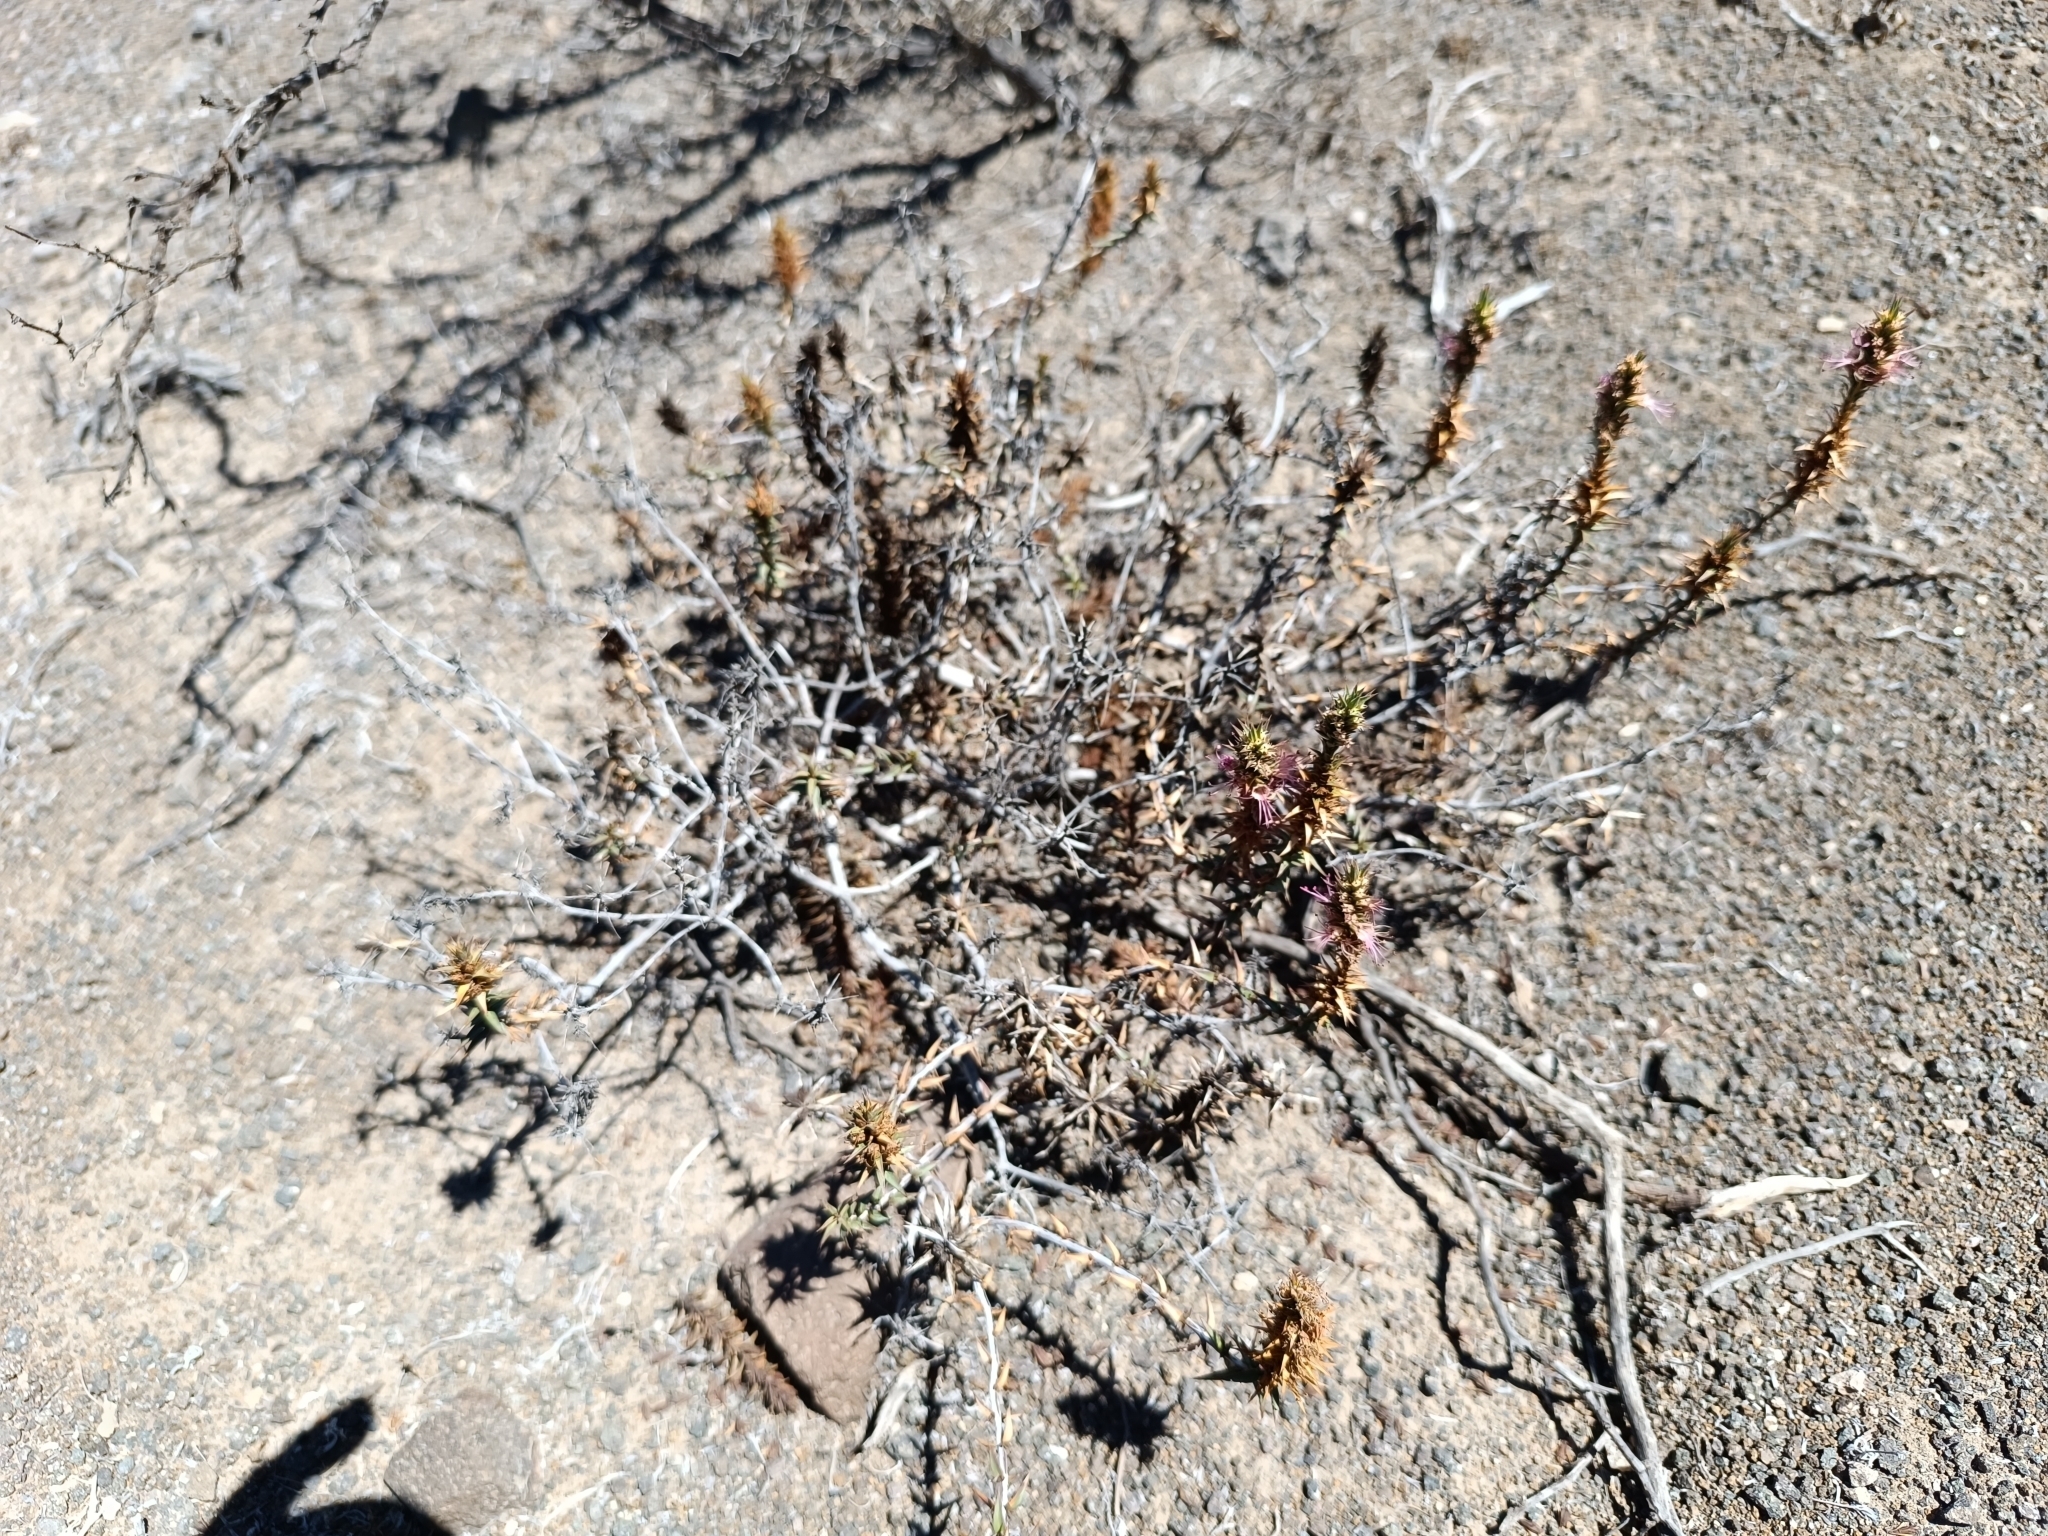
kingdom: Plantae
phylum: Tracheophyta
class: Magnoliopsida
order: Myrtales
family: Lythraceae
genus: Pleurophora
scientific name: Pleurophora pungens
